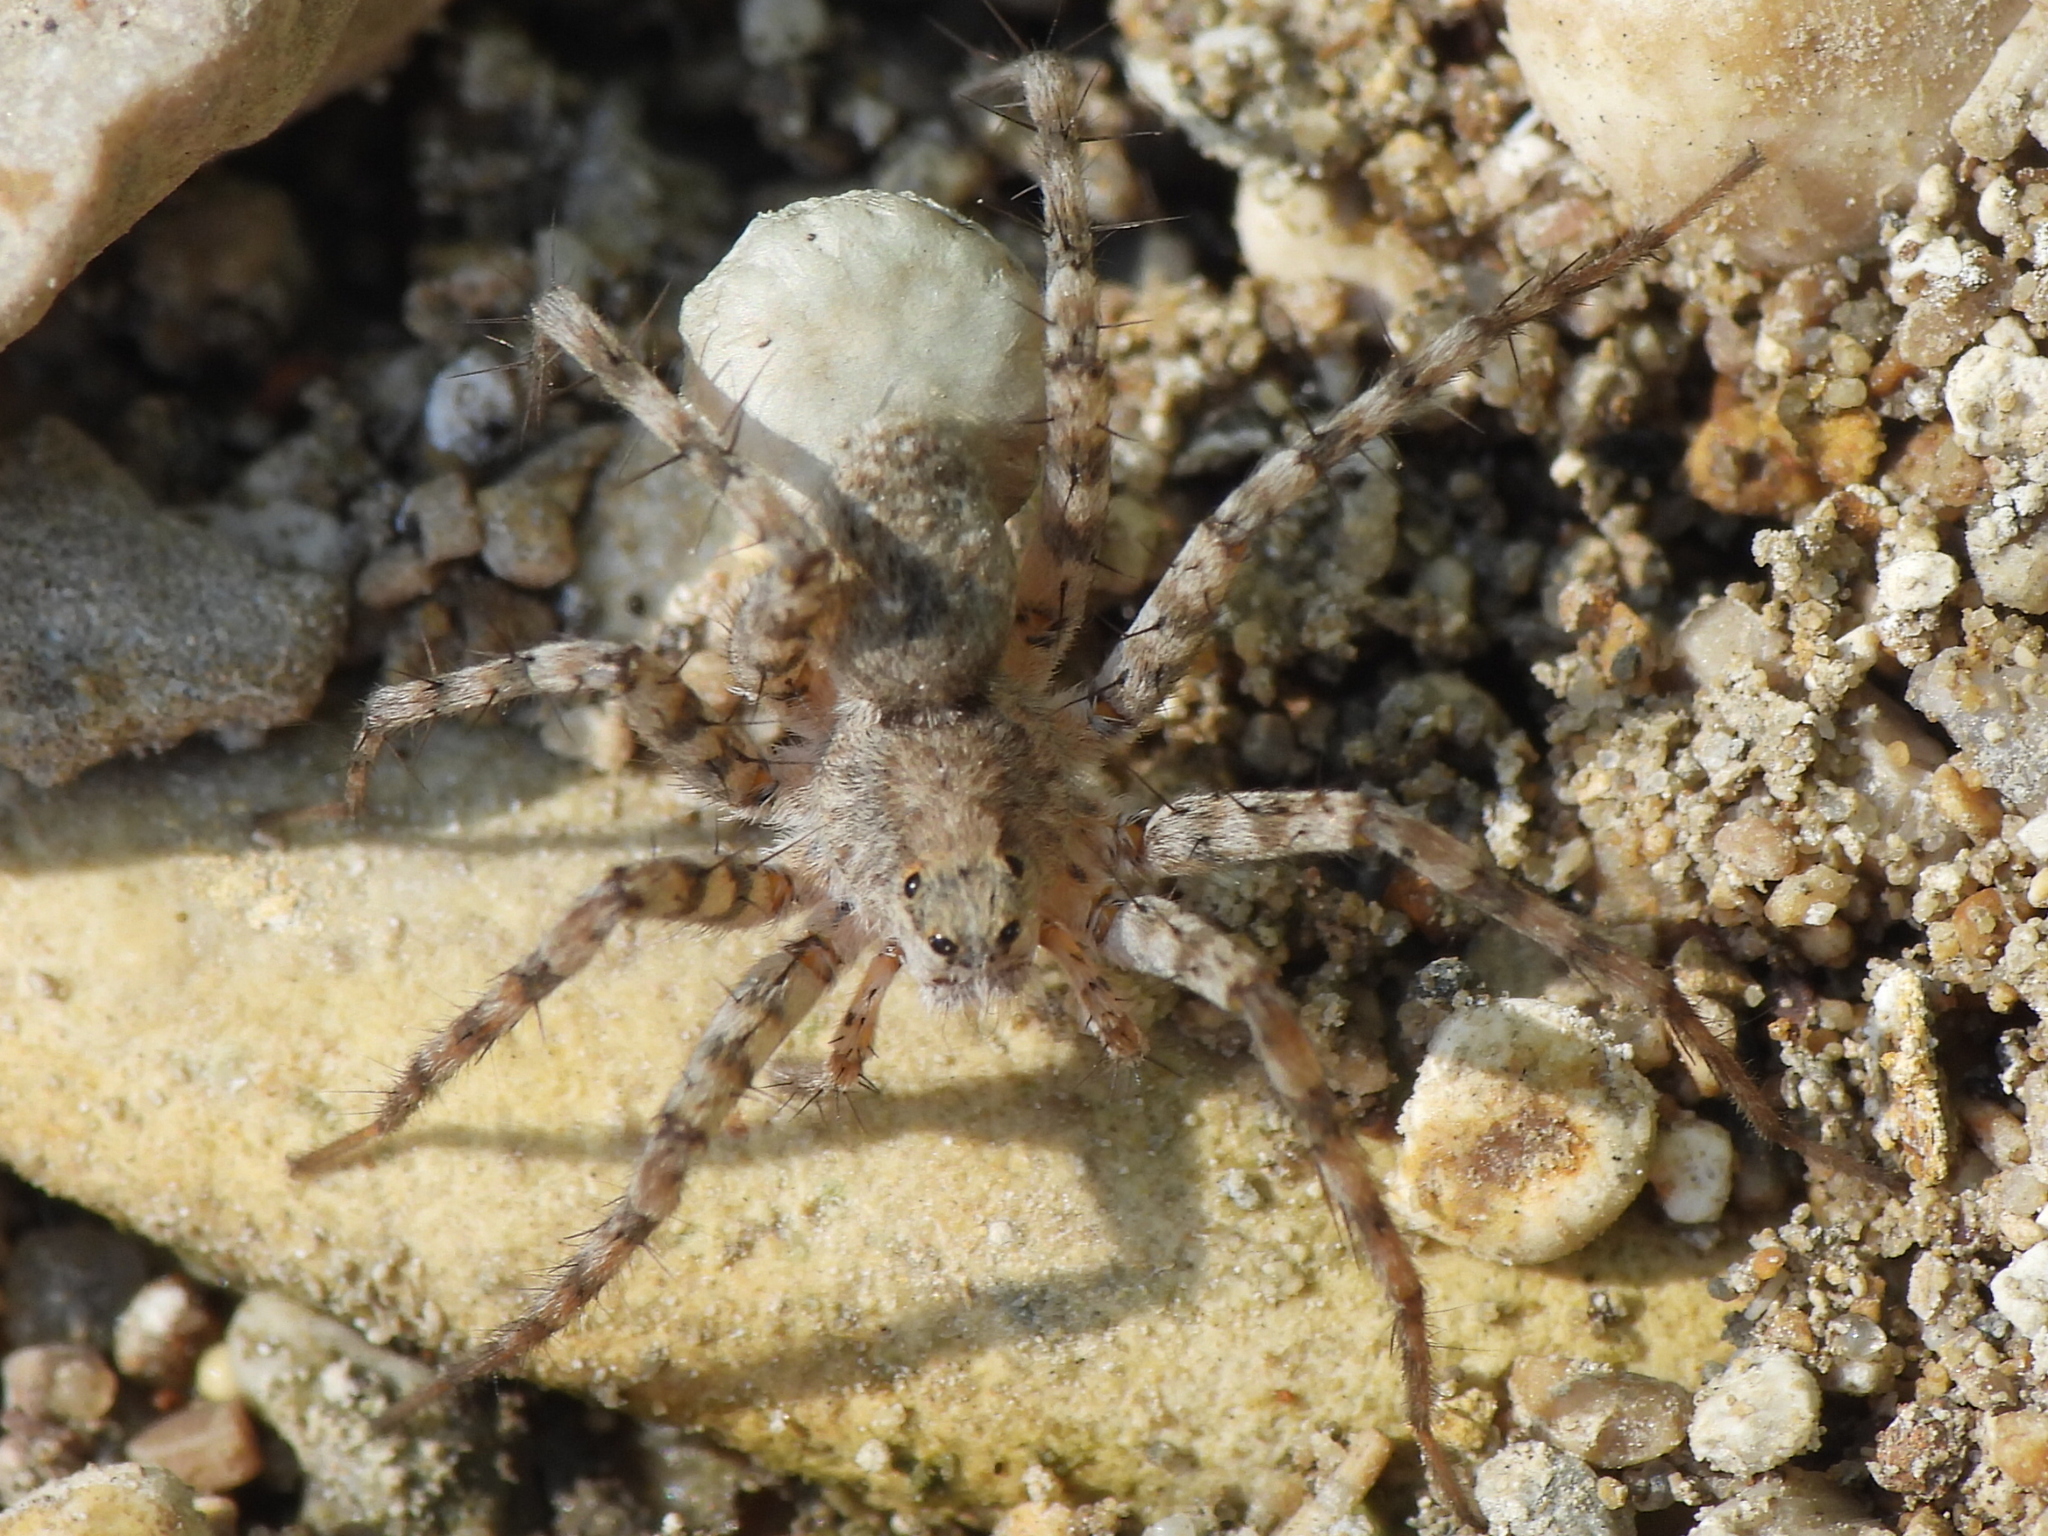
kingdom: Animalia
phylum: Arthropoda
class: Arachnida
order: Araneae
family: Lycosidae
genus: Pardosa
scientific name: Pardosa mercurialis
